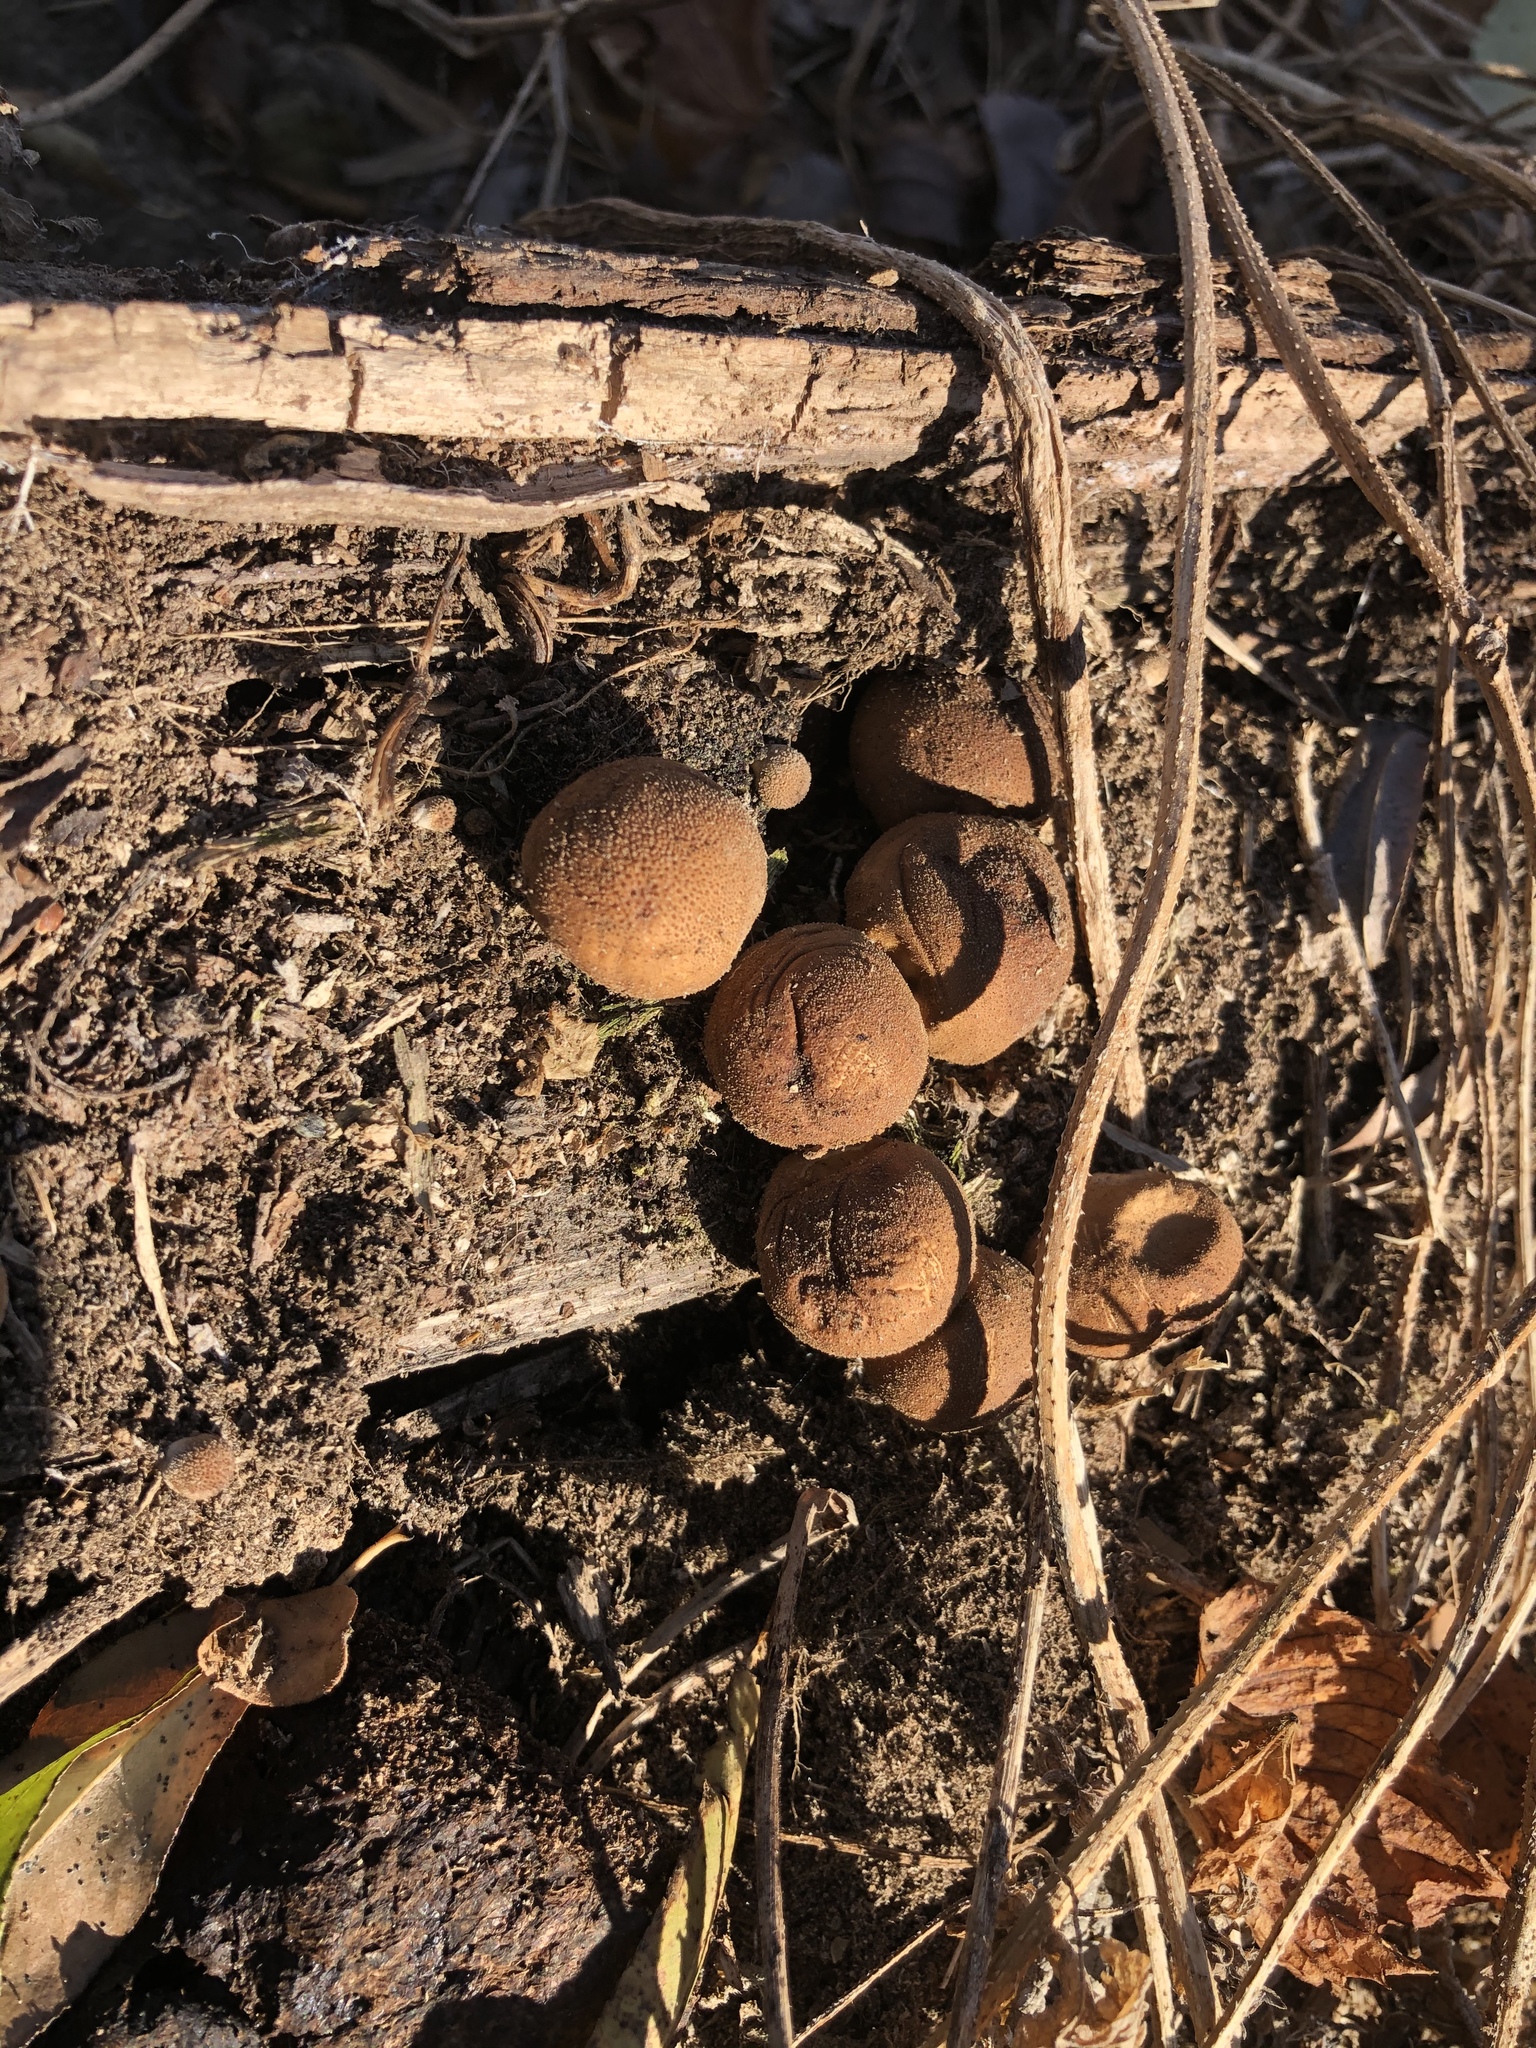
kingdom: Fungi
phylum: Basidiomycota
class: Agaricomycetes
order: Agaricales
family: Lycoperdaceae
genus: Apioperdon
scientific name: Apioperdon pyriforme
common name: Pear-shaped puffball
